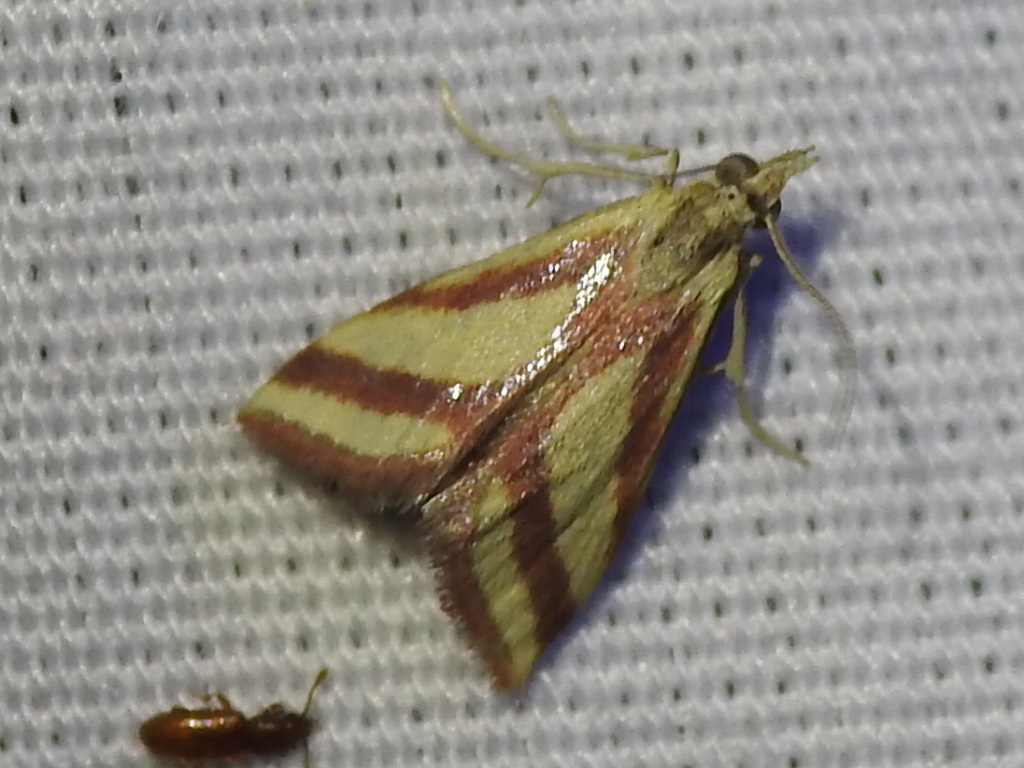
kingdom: Animalia
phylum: Arthropoda
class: Insecta
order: Lepidoptera
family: Crambidae
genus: Microtheoris
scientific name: Microtheoris vibicalis
